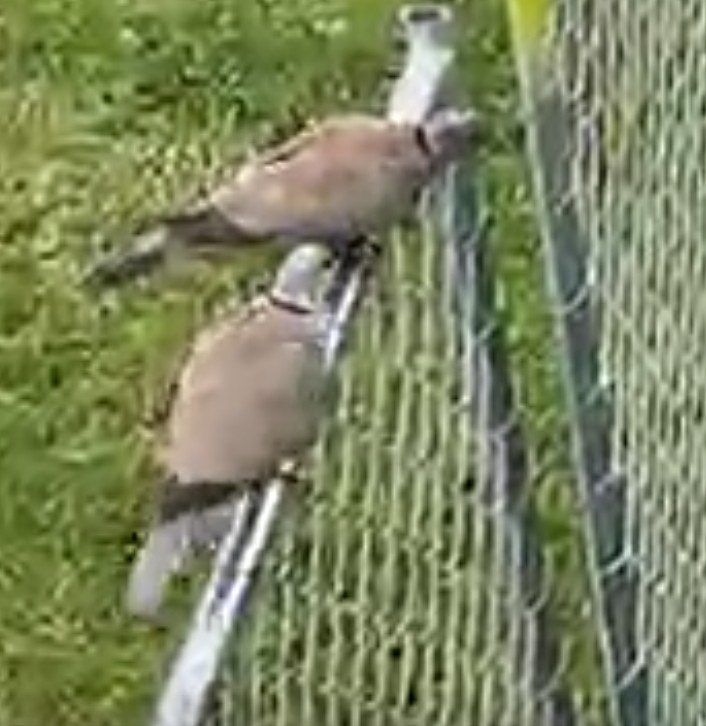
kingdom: Animalia
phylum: Chordata
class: Aves
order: Columbiformes
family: Columbidae
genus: Streptopelia
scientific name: Streptopelia decaocto
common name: Eurasian collared dove
